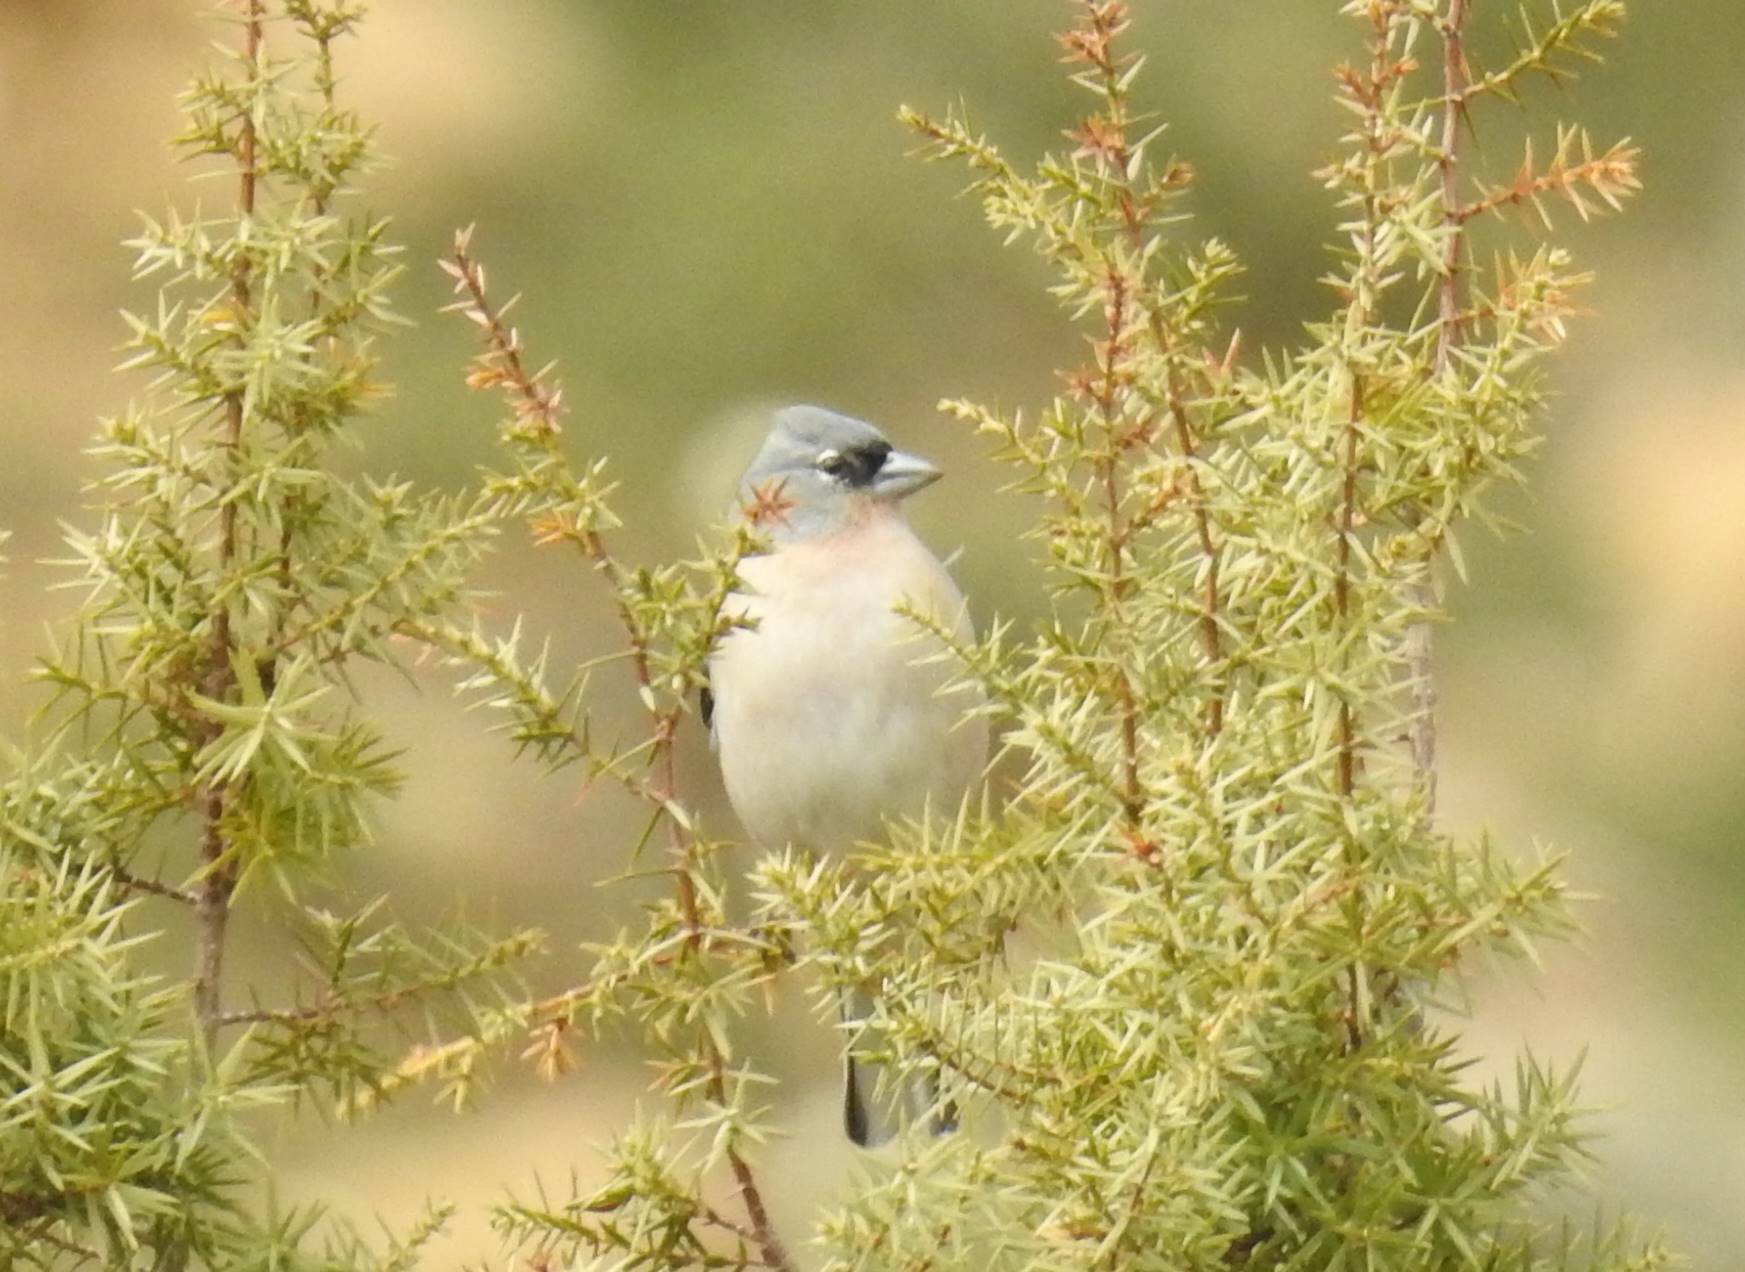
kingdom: Animalia
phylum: Chordata
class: Aves
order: Passeriformes
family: Fringillidae
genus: Fringilla
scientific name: Fringilla spodiogenys
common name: African chaffinch
